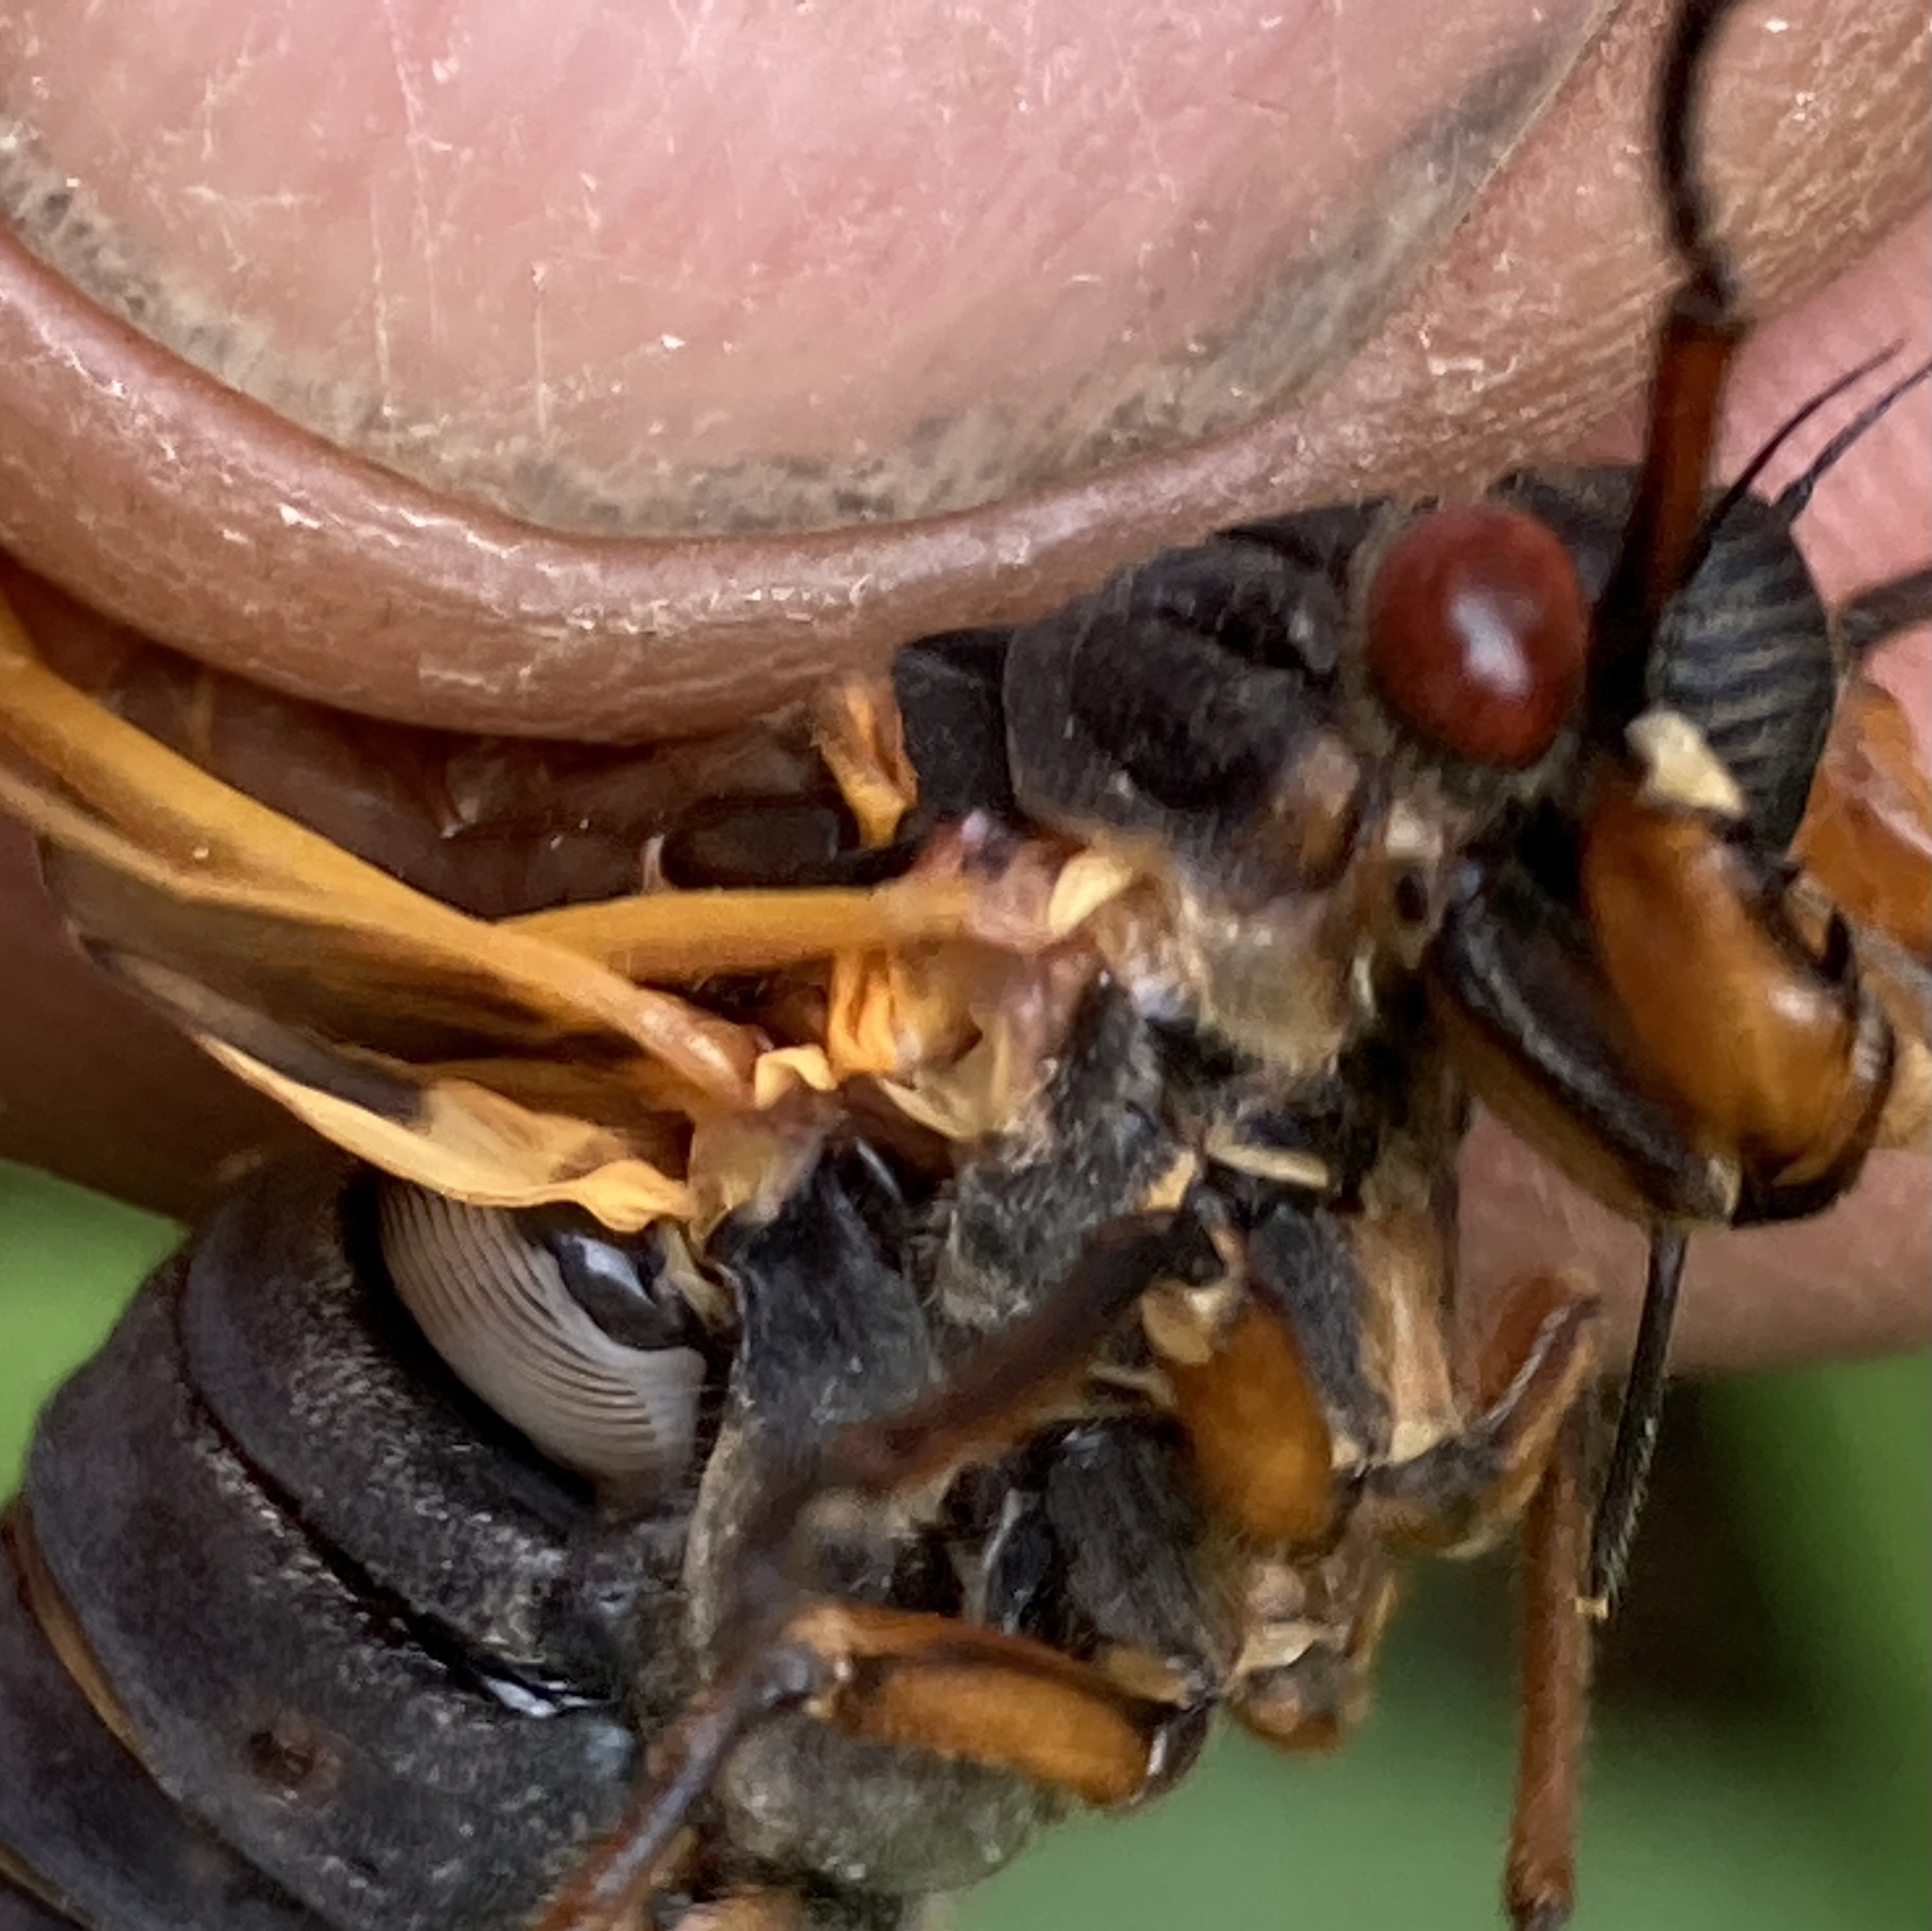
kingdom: Animalia
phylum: Arthropoda
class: Insecta
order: Hemiptera
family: Cicadidae
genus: Magicicada
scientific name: Magicicada septendecim
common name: Periodical cicada
